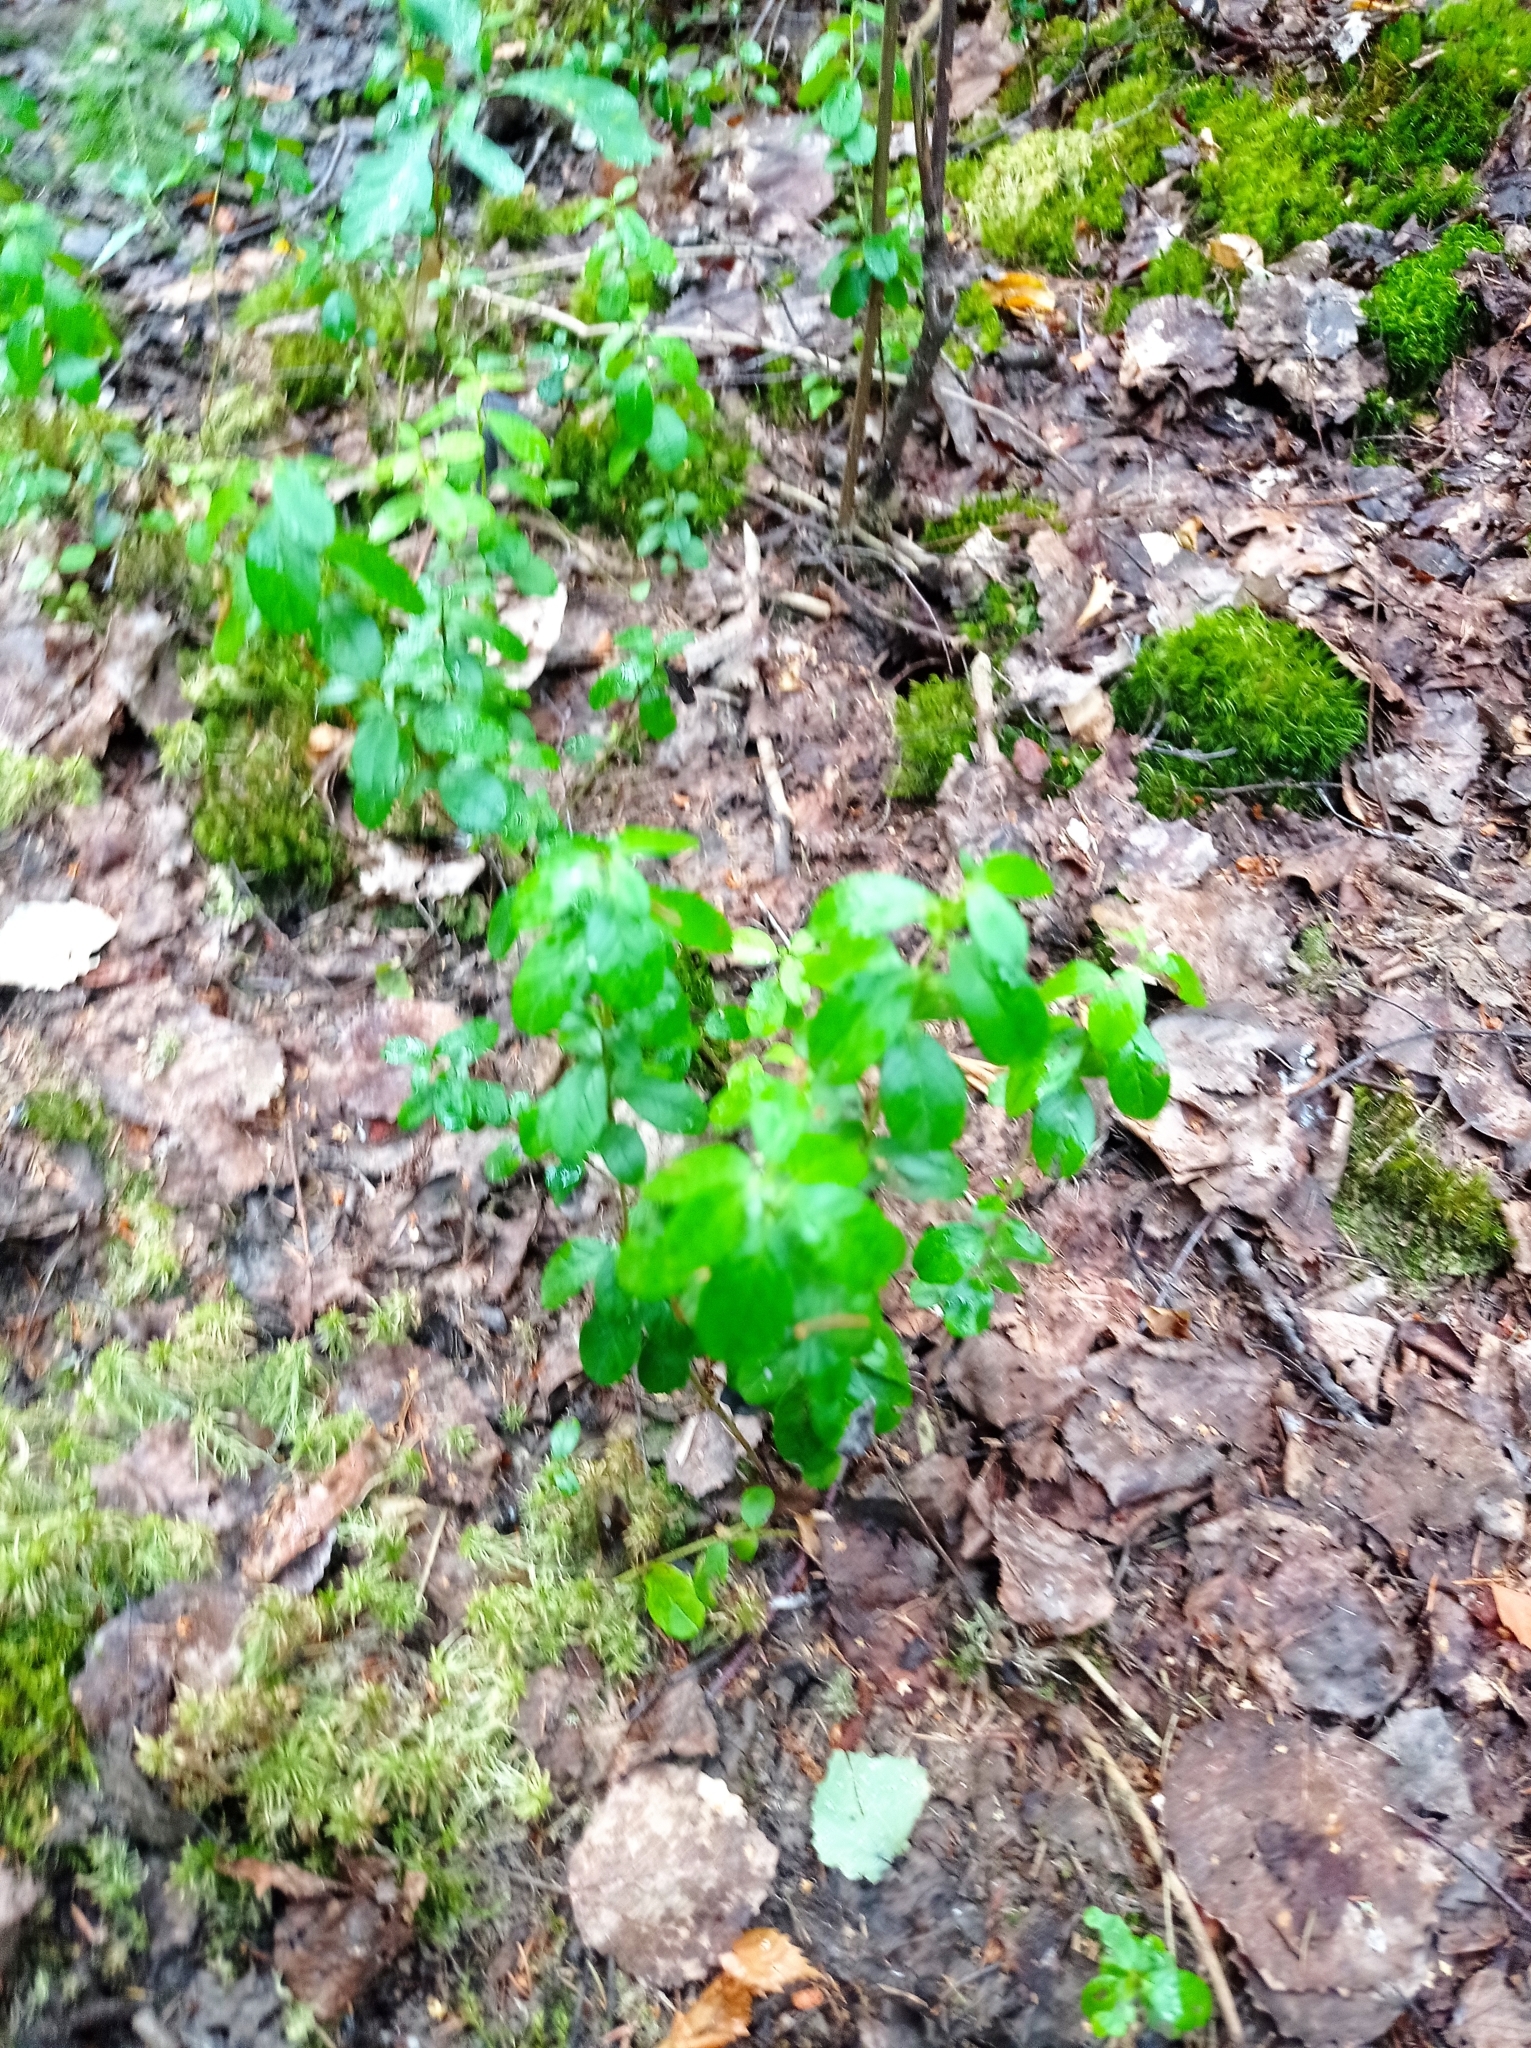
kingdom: Plantae
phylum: Tracheophyta
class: Magnoliopsida
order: Ericales
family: Ericaceae
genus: Vaccinium
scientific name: Vaccinium vitis-idaea
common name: Cowberry
